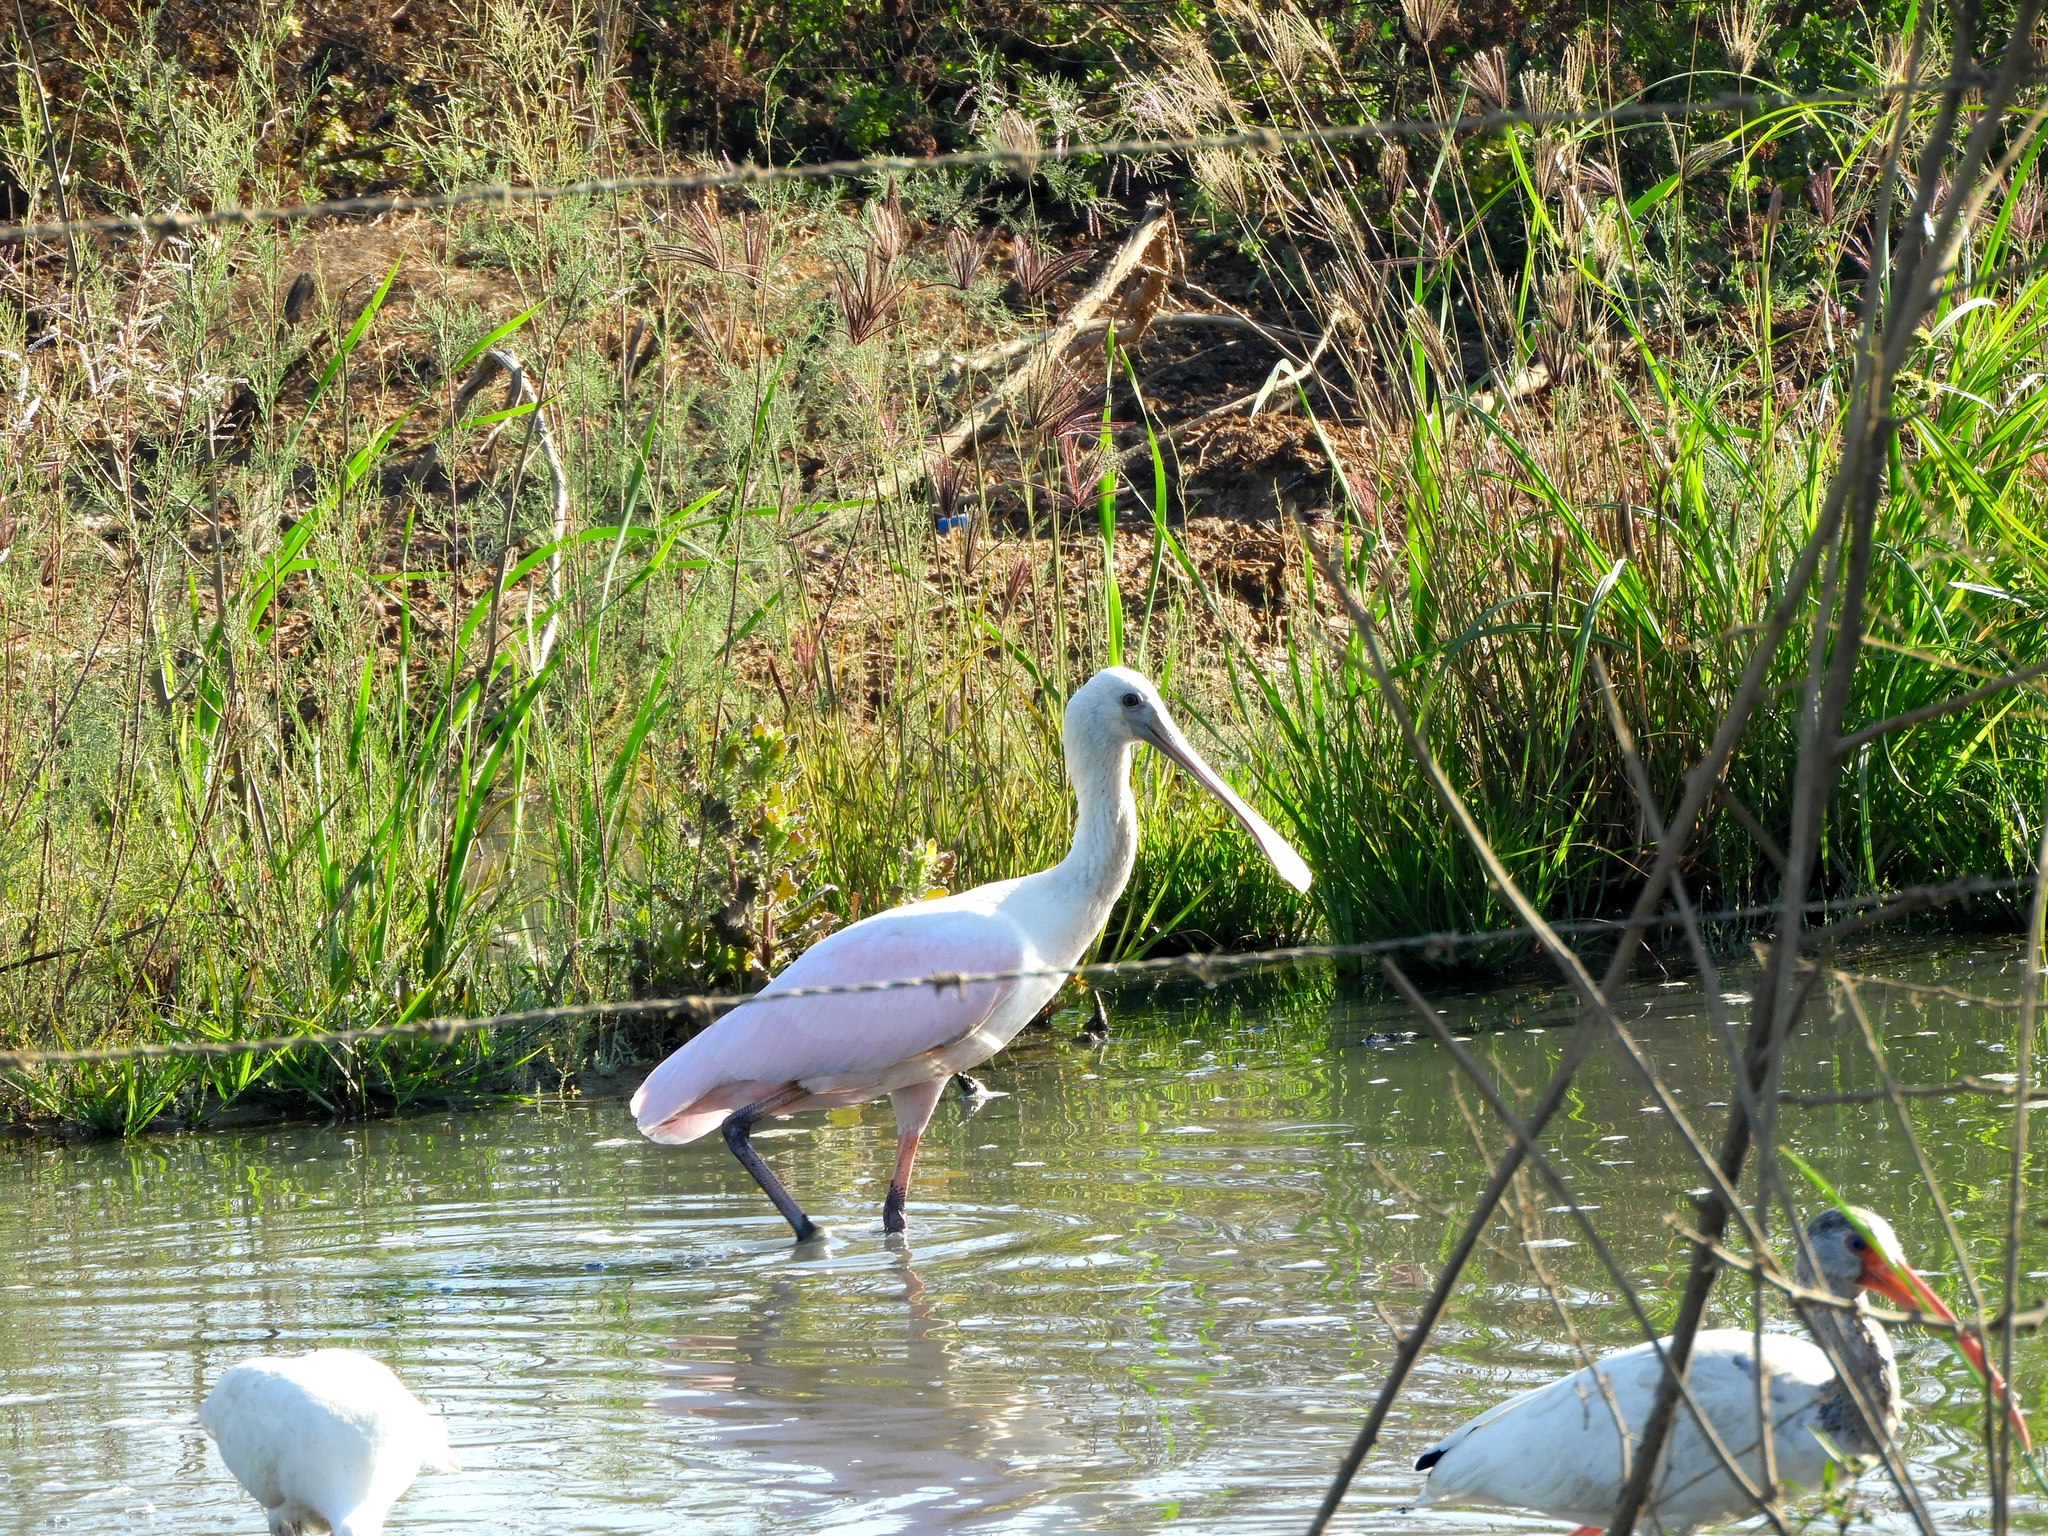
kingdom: Animalia
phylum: Chordata
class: Aves
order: Pelecaniformes
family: Threskiornithidae
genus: Platalea
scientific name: Platalea ajaja
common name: Roseate spoonbill
